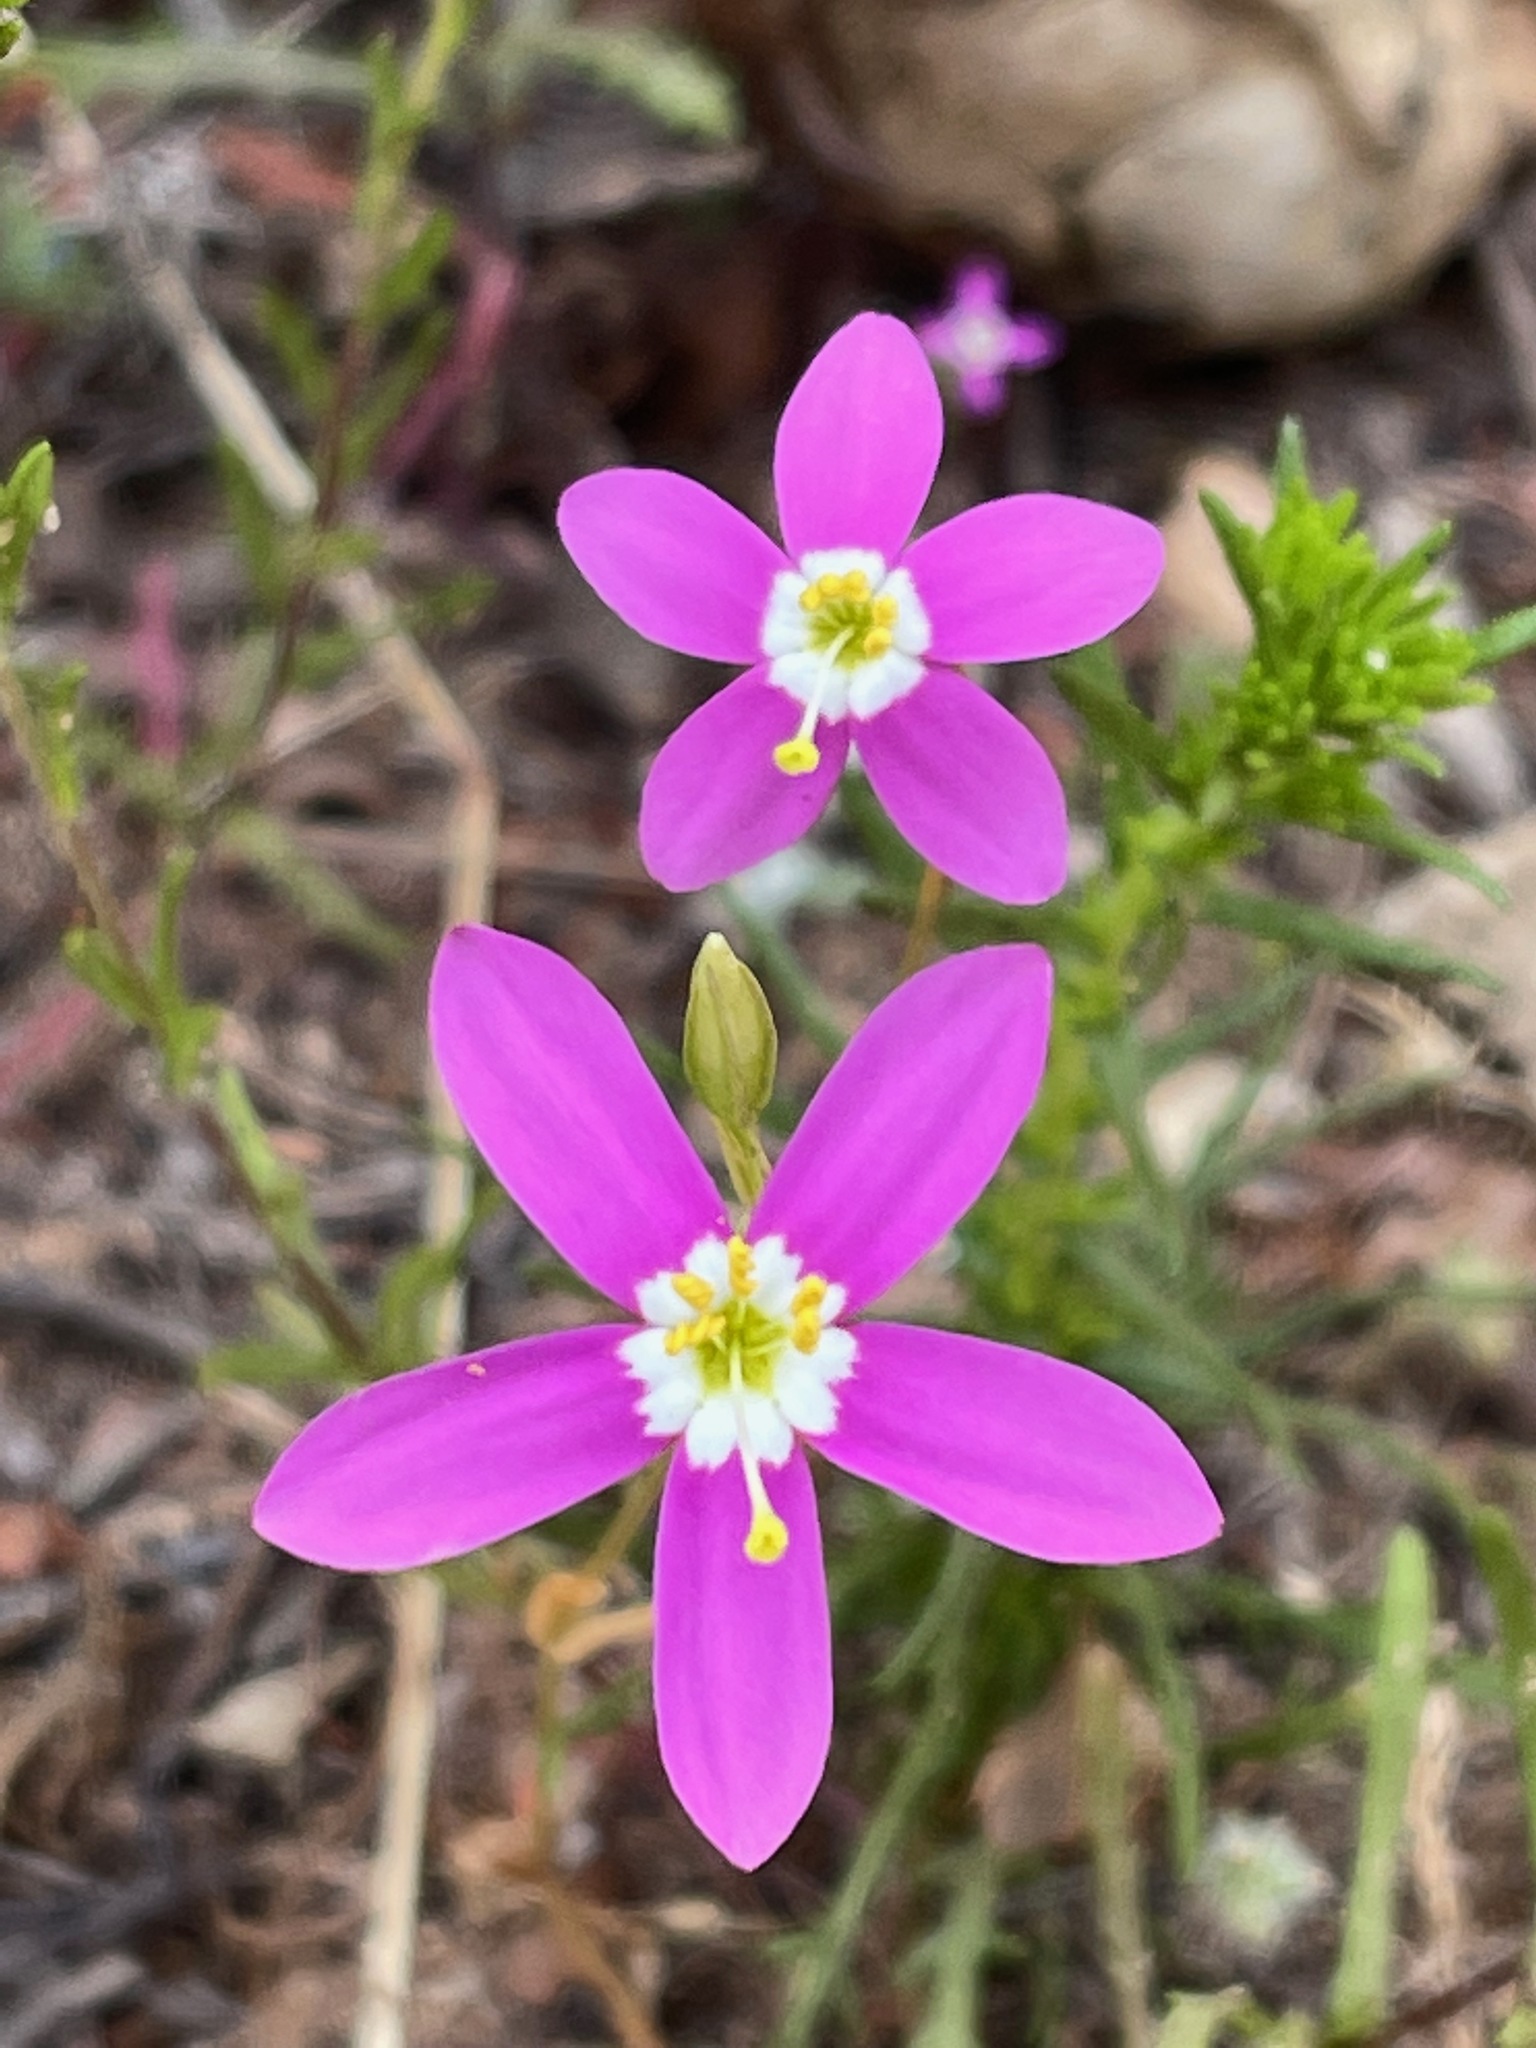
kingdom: Plantae
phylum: Tracheophyta
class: Magnoliopsida
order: Gentianales
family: Gentianaceae
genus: Zeltnera
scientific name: Zeltnera venusta
